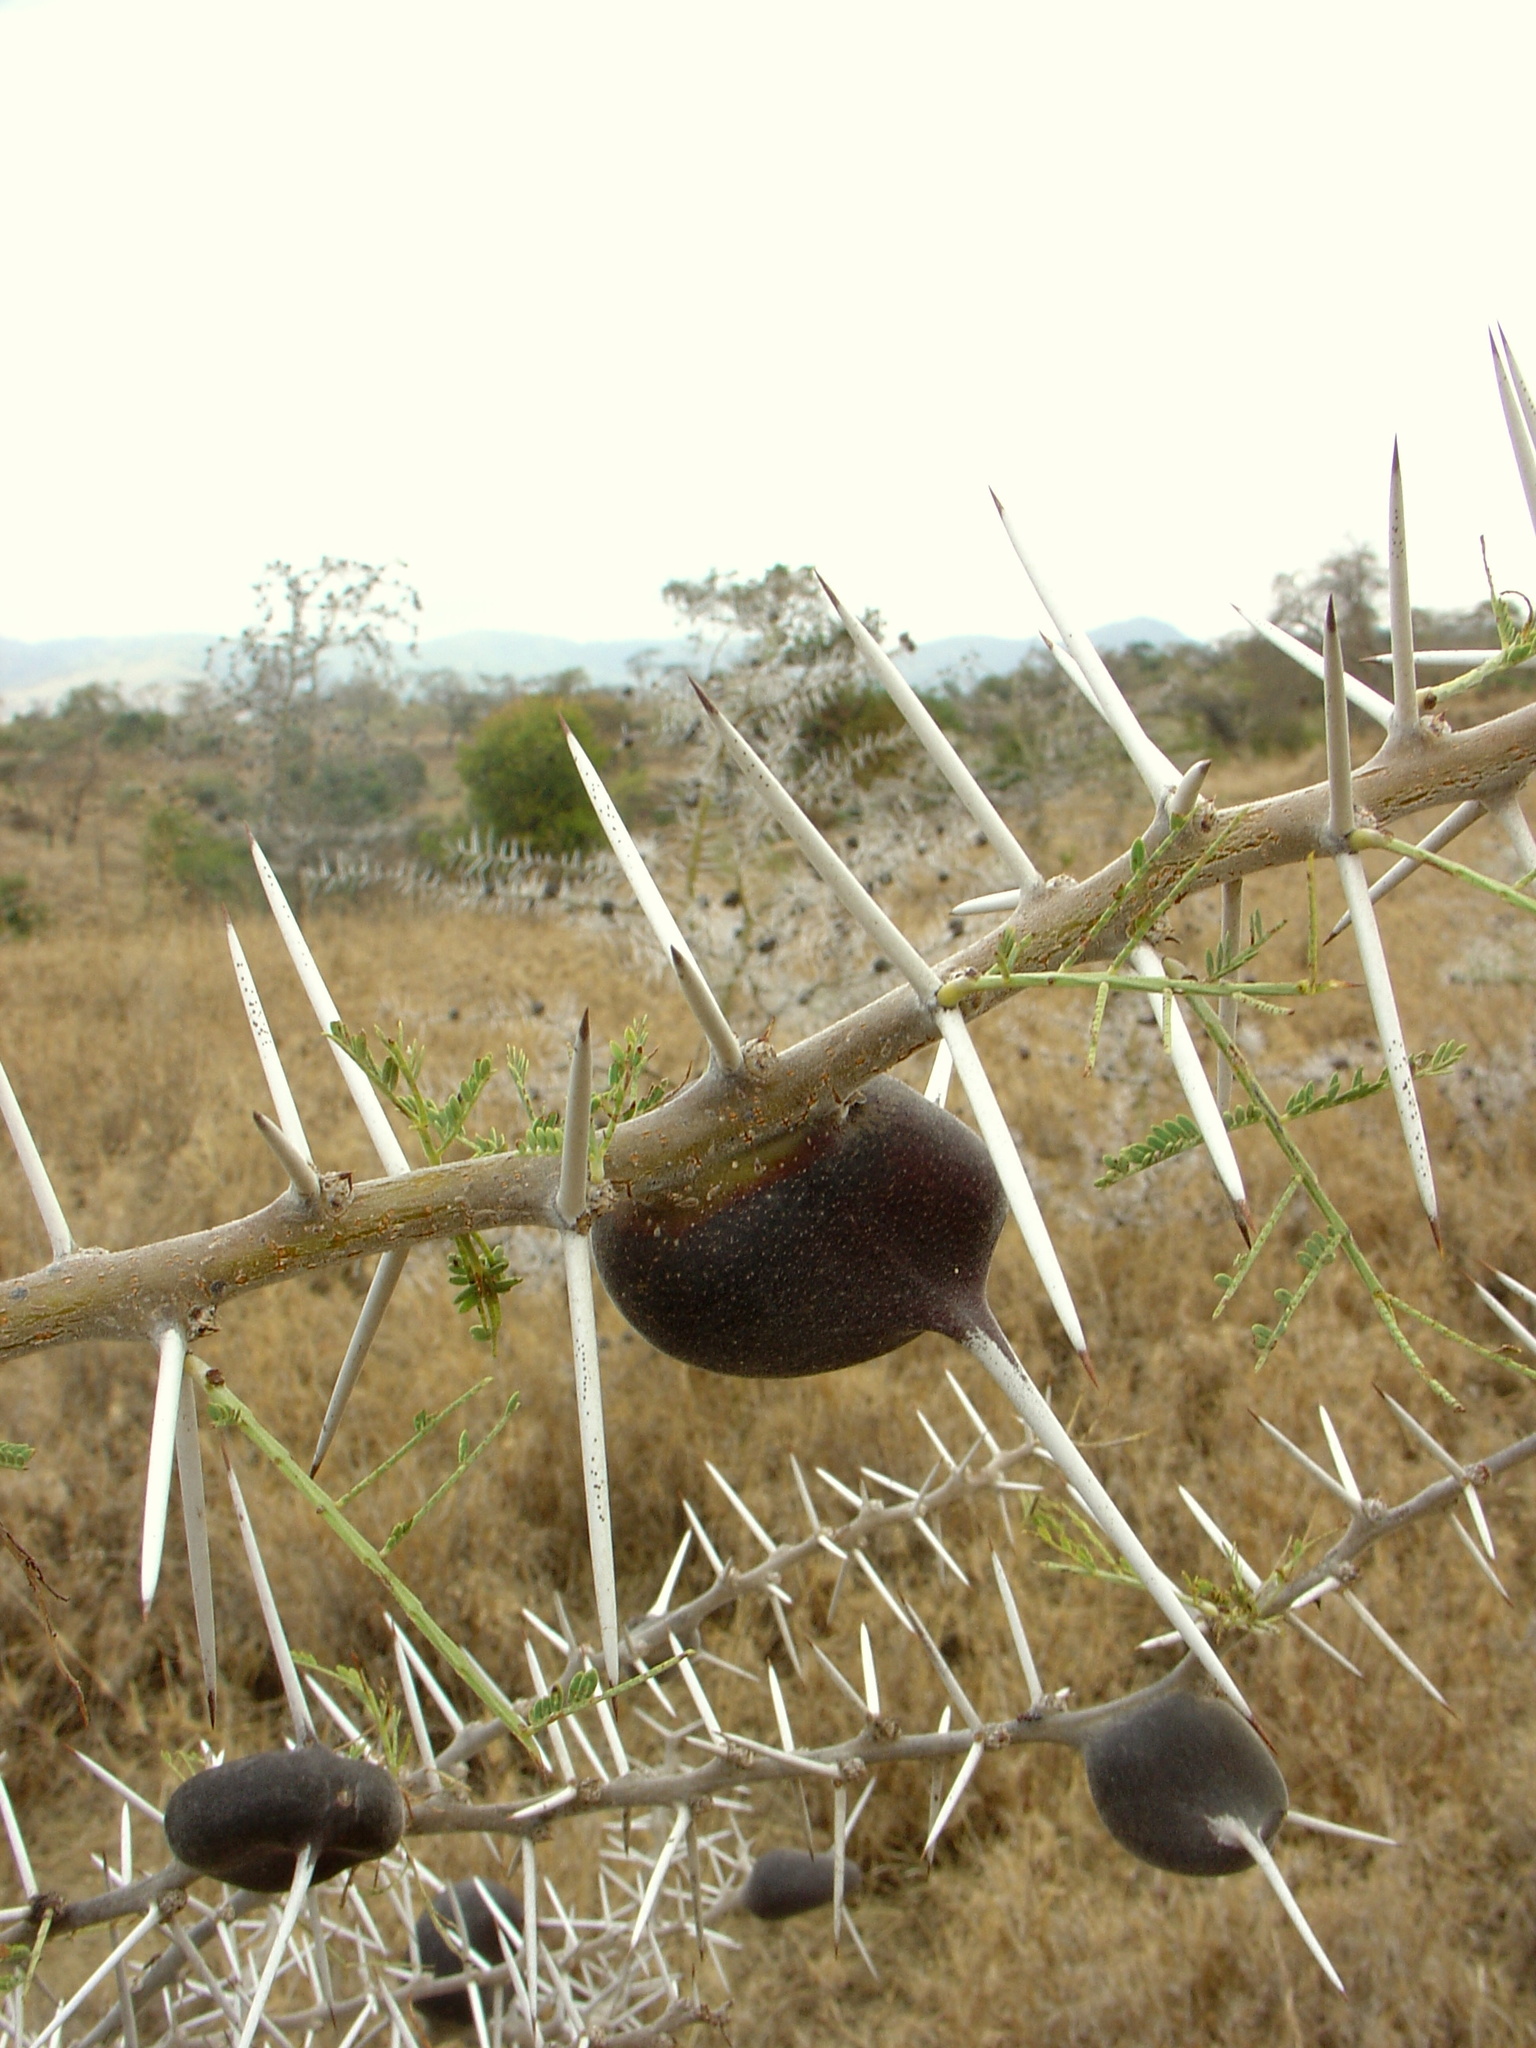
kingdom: Plantae
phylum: Tracheophyta
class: Magnoliopsida
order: Fabales
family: Fabaceae
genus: Vachellia
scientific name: Vachellia drepanolobium
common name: Whistling thorn
